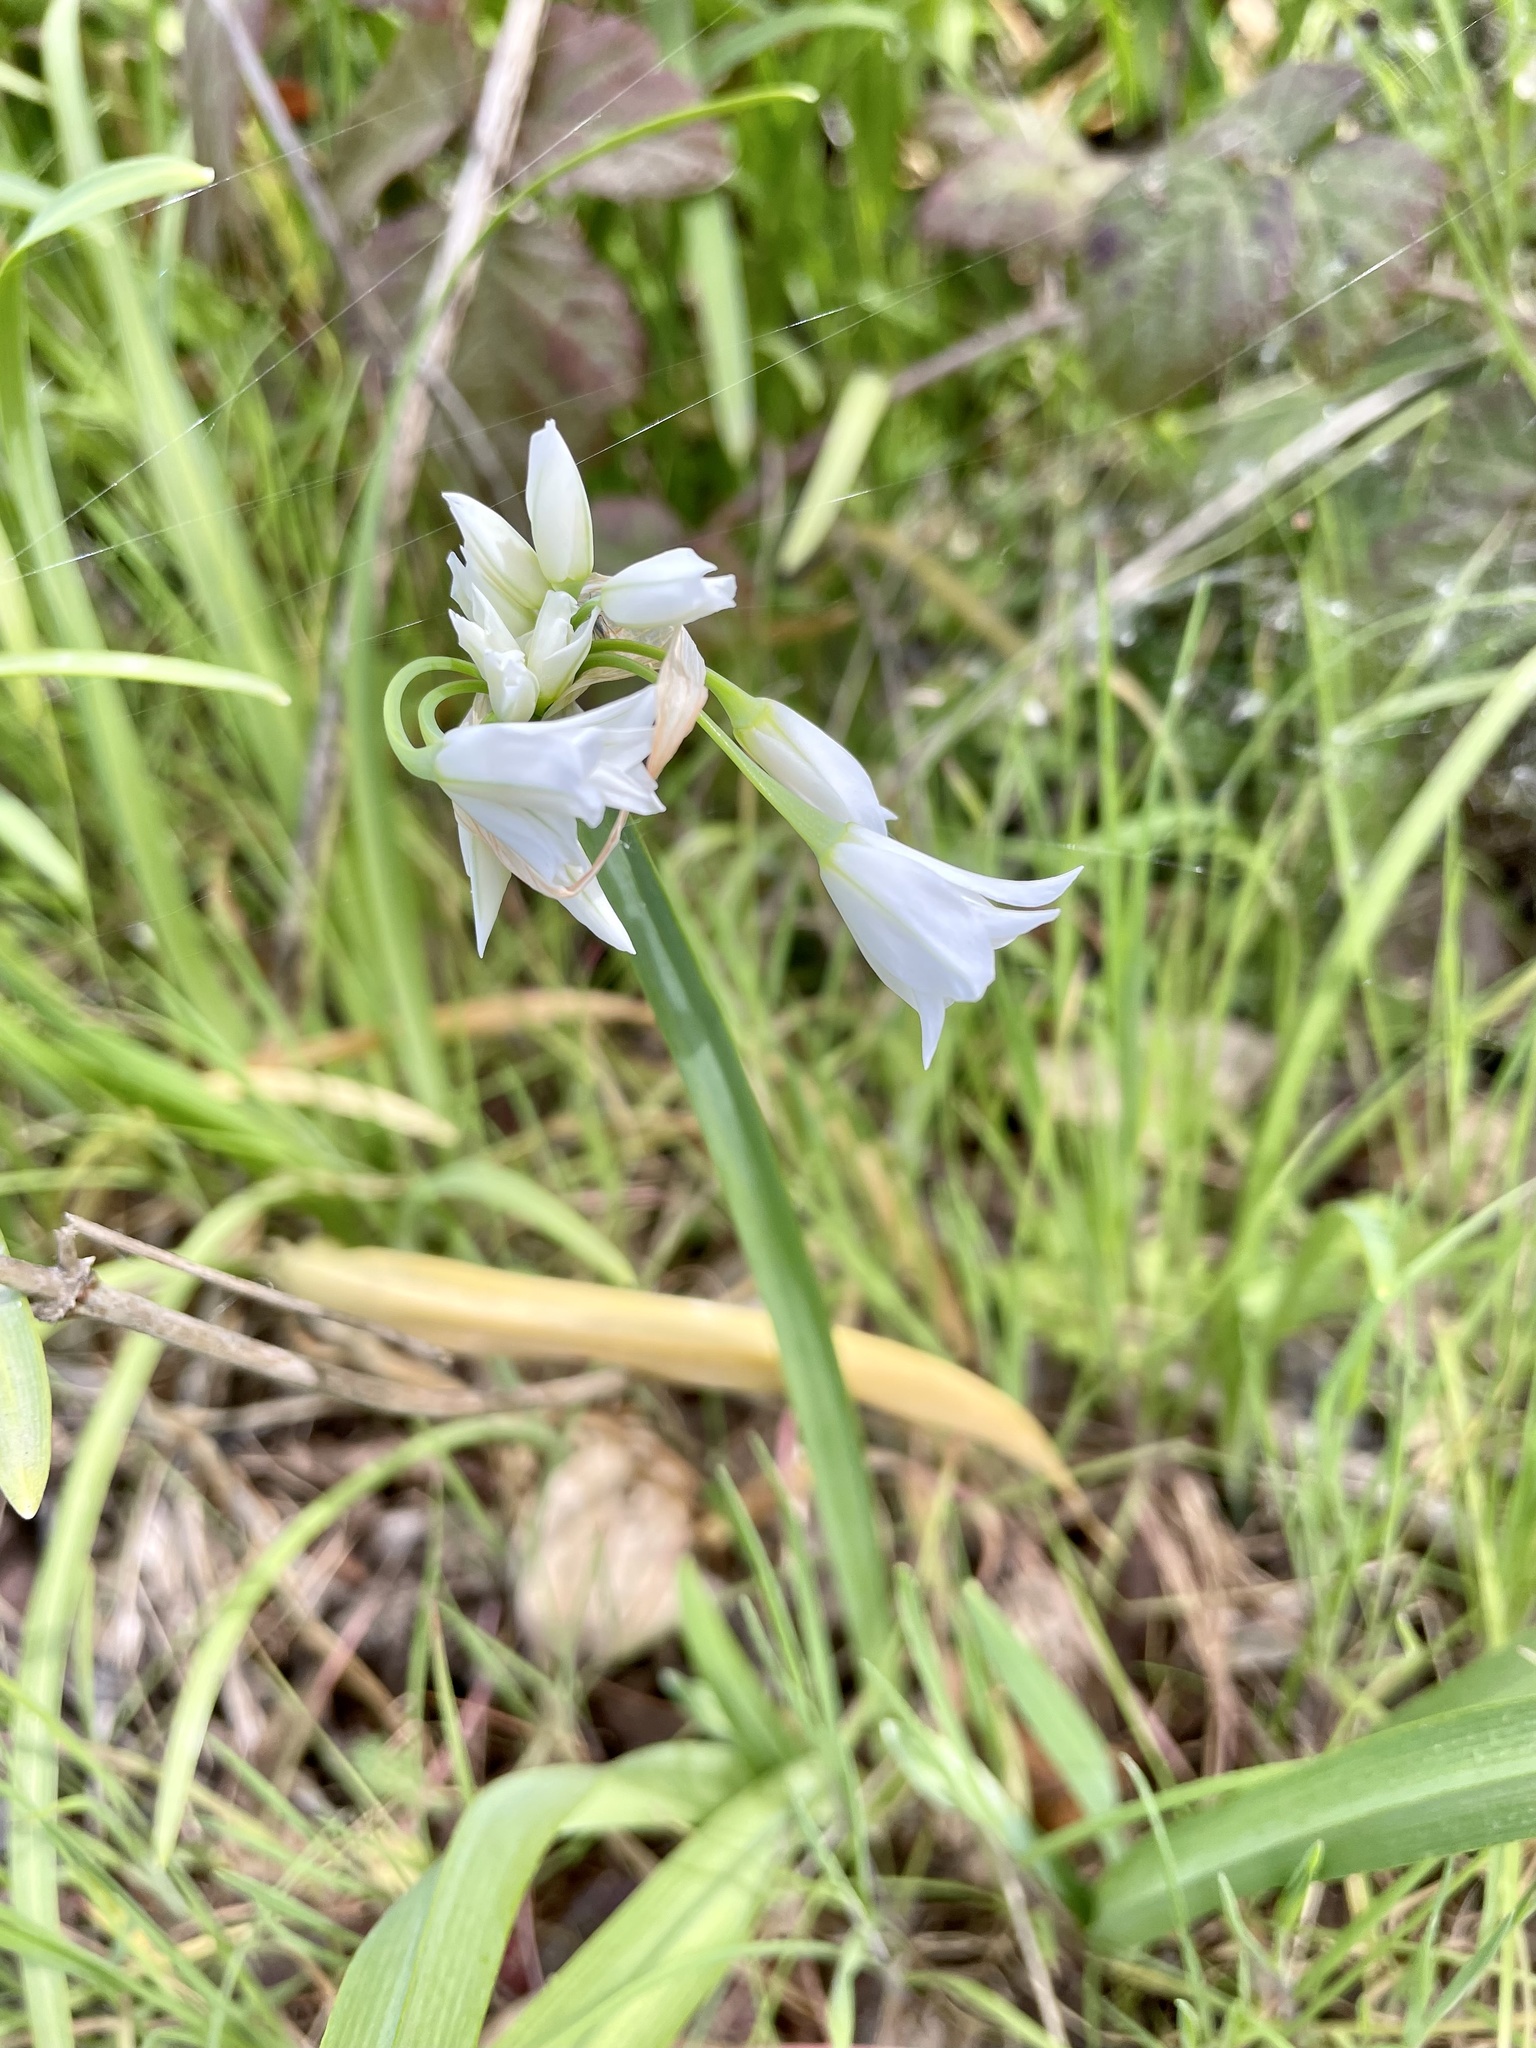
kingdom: Plantae
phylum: Tracheophyta
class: Liliopsida
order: Asparagales
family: Amaryllidaceae
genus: Allium
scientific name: Allium triquetrum
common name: Three-cornered garlic
